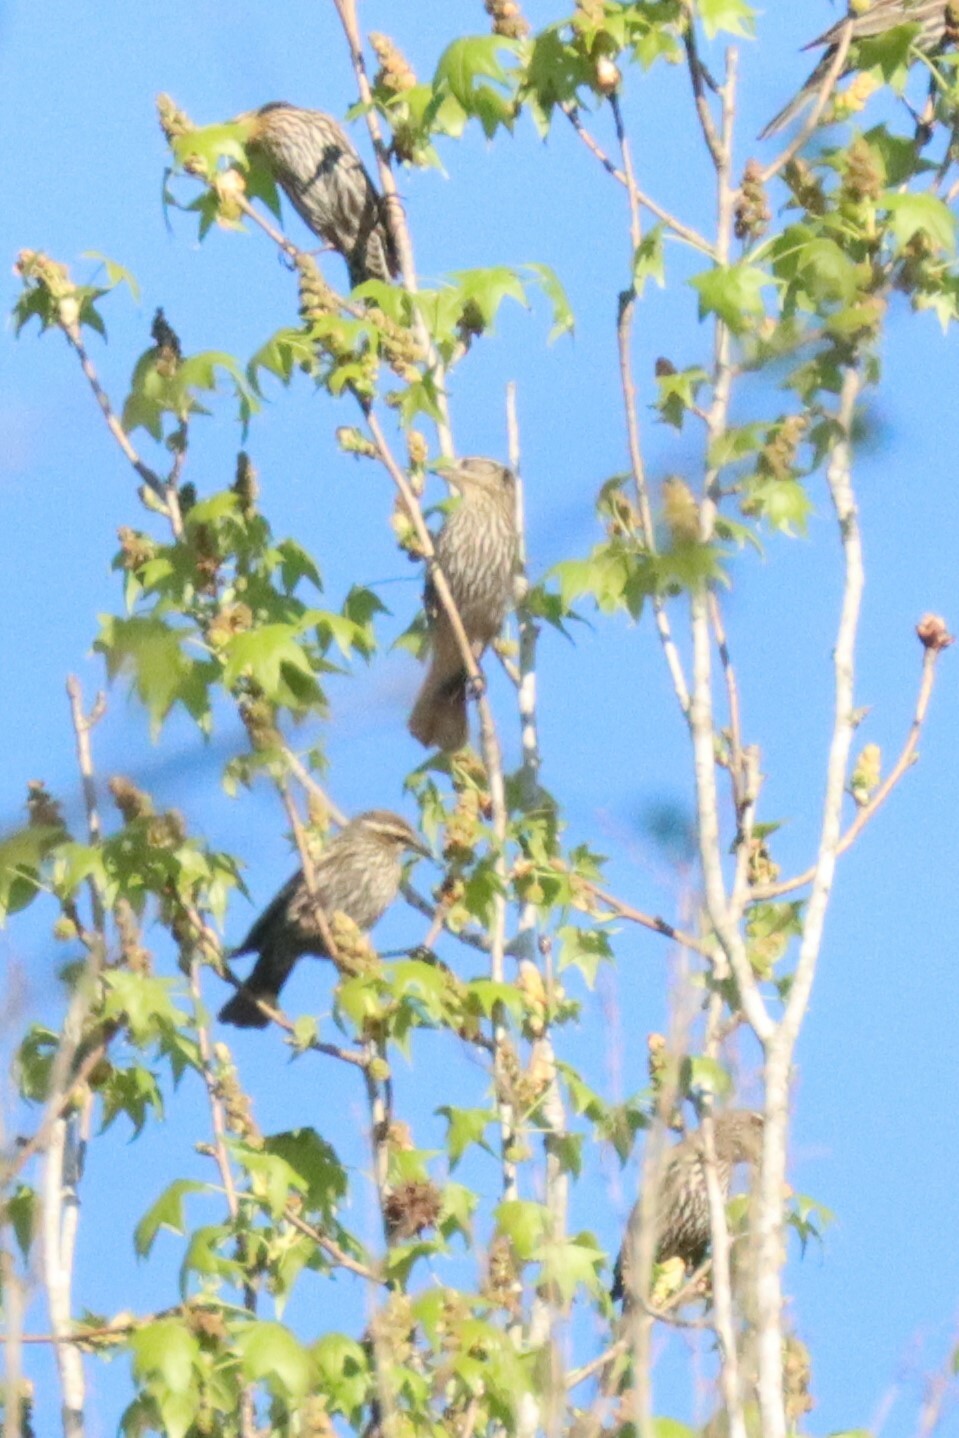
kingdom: Animalia
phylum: Chordata
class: Aves
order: Passeriformes
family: Icteridae
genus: Agelaius
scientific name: Agelaius phoeniceus
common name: Red-winged blackbird
